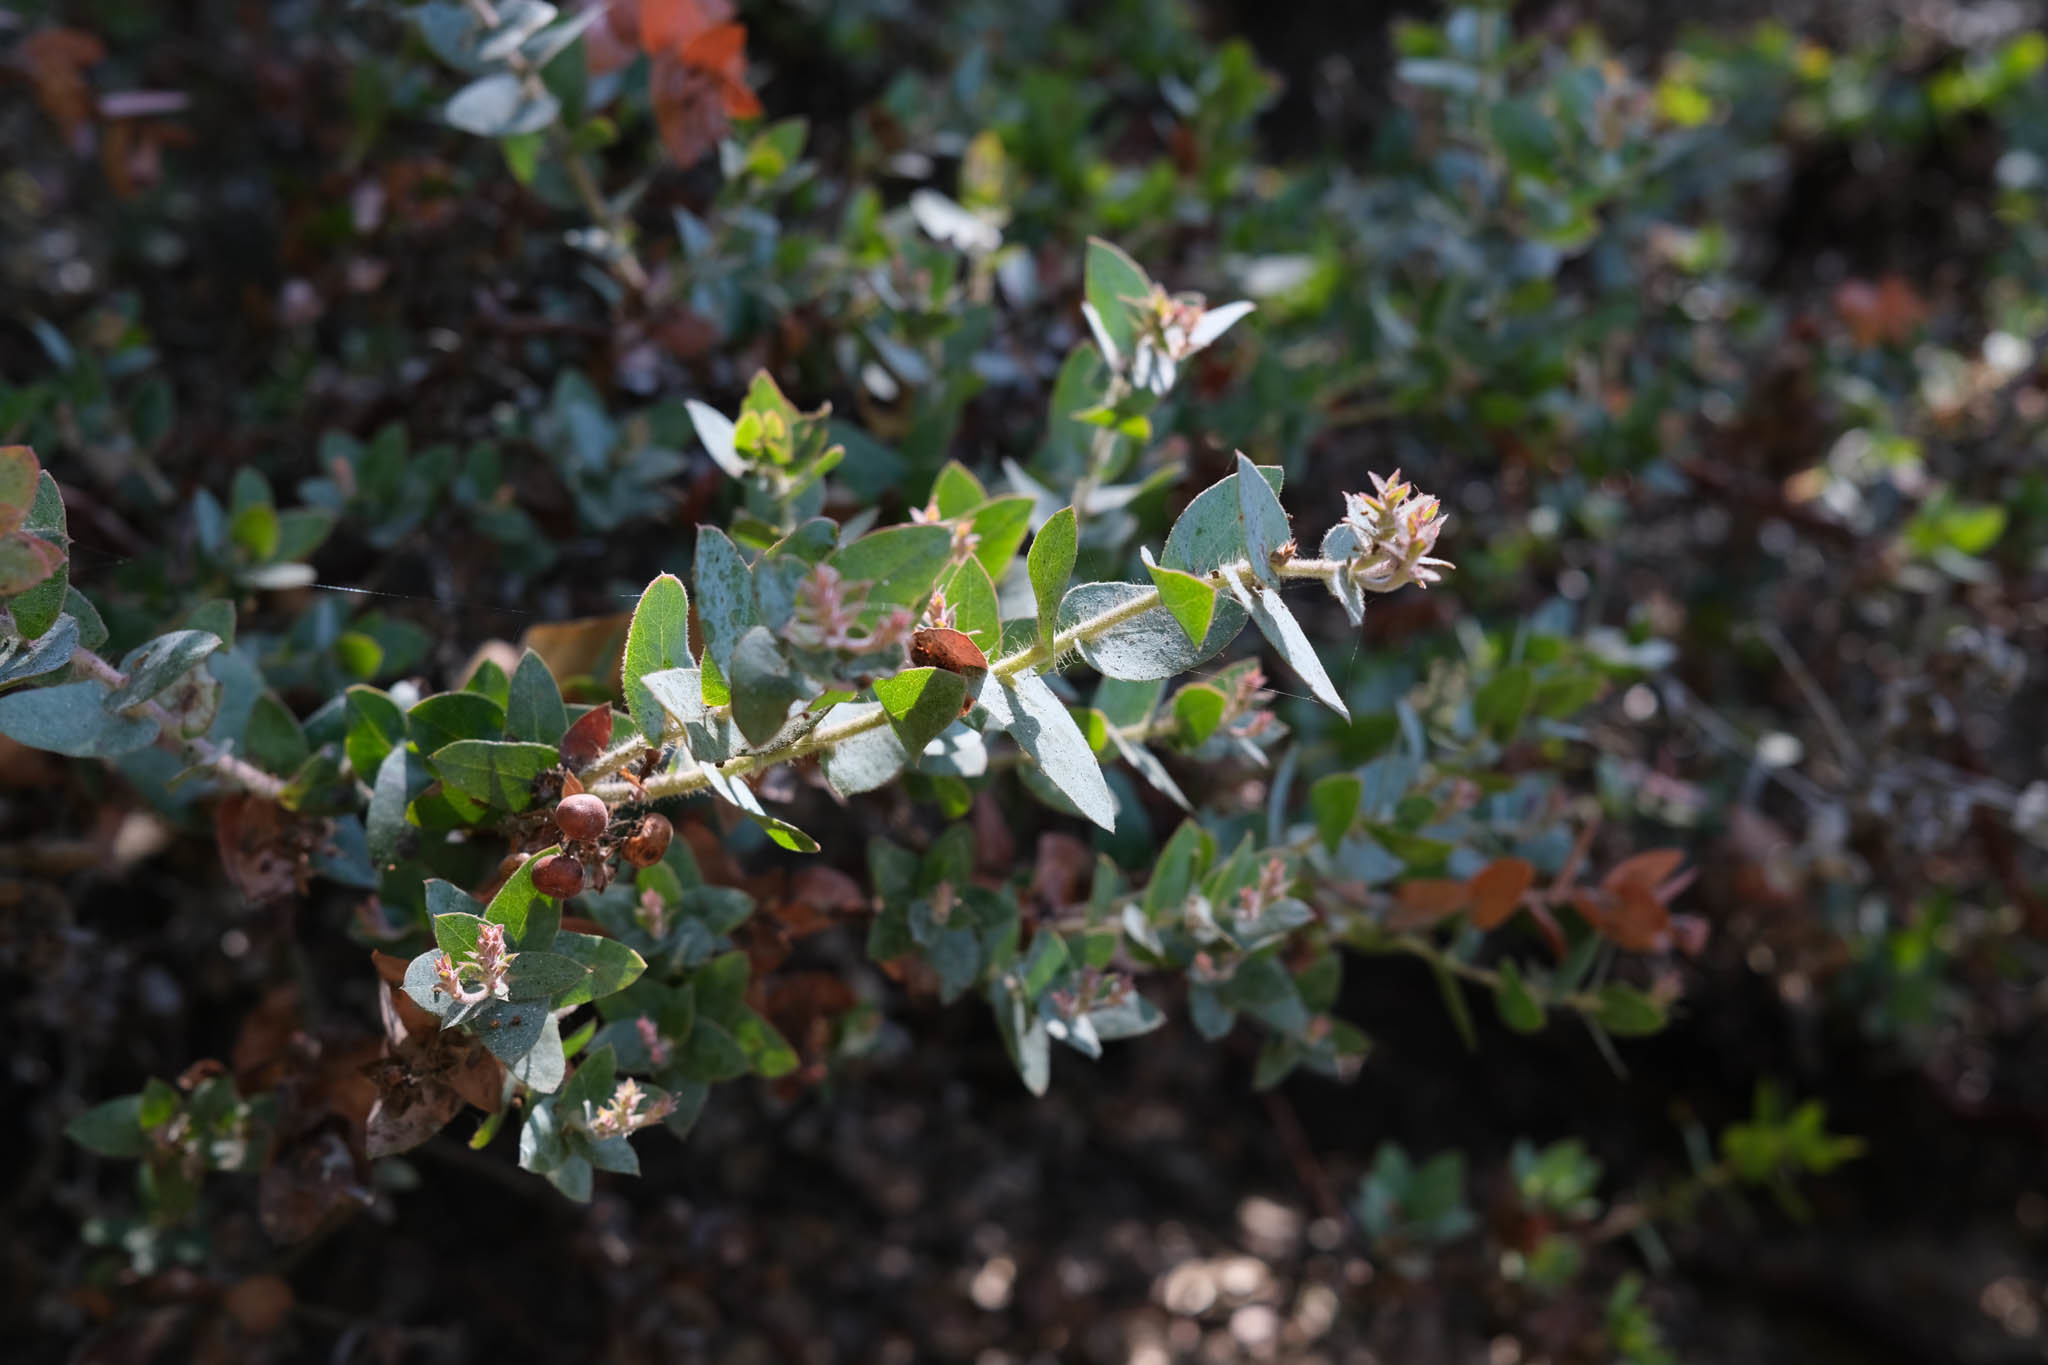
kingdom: Plantae
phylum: Tracheophyta
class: Magnoliopsida
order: Ericales
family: Ericaceae
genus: Arctostaphylos
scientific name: Arctostaphylos pajaroensis
